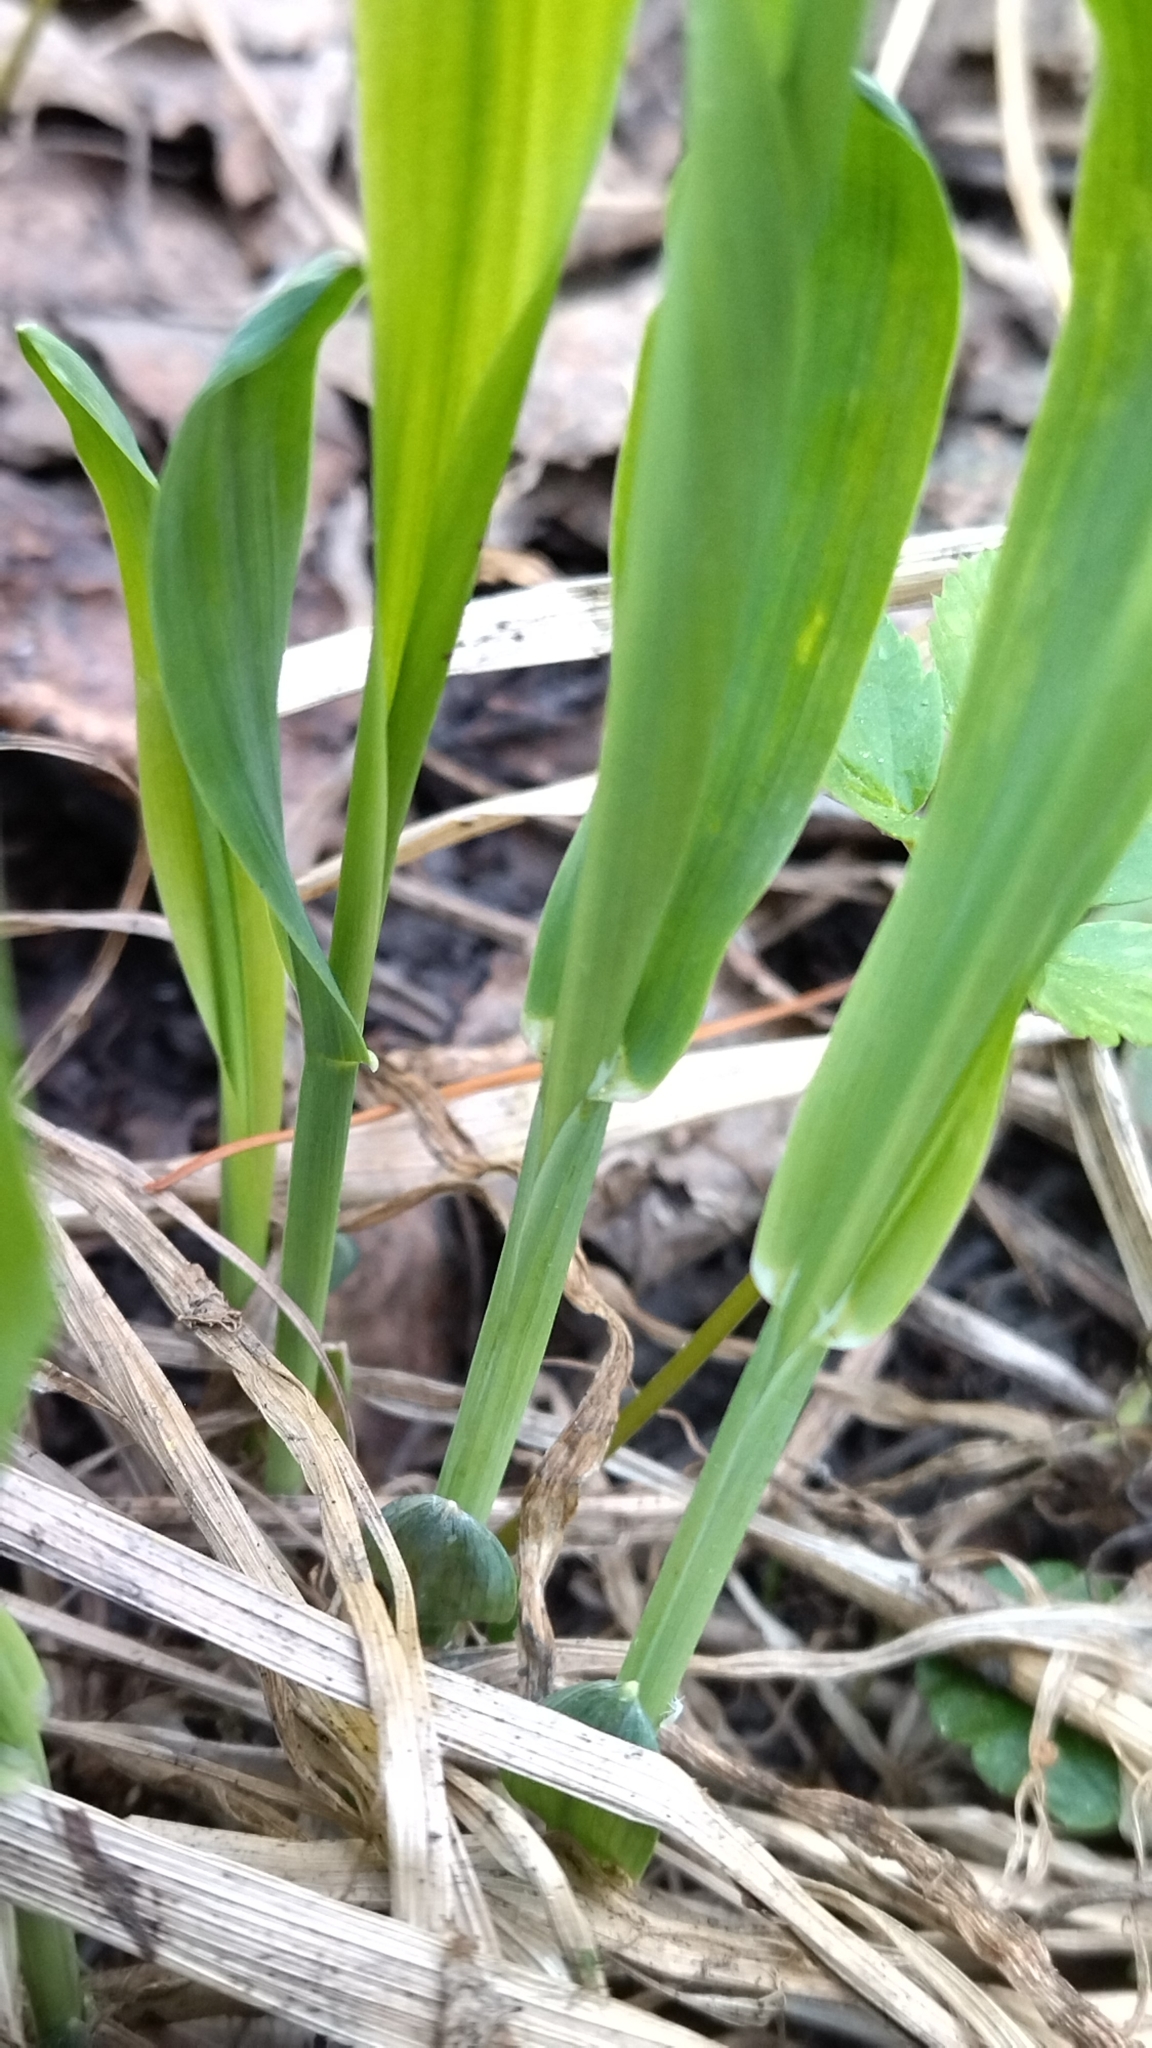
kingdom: Plantae
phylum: Tracheophyta
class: Liliopsida
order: Poales
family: Poaceae
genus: Milium
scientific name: Milium effusum
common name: Wood millet
